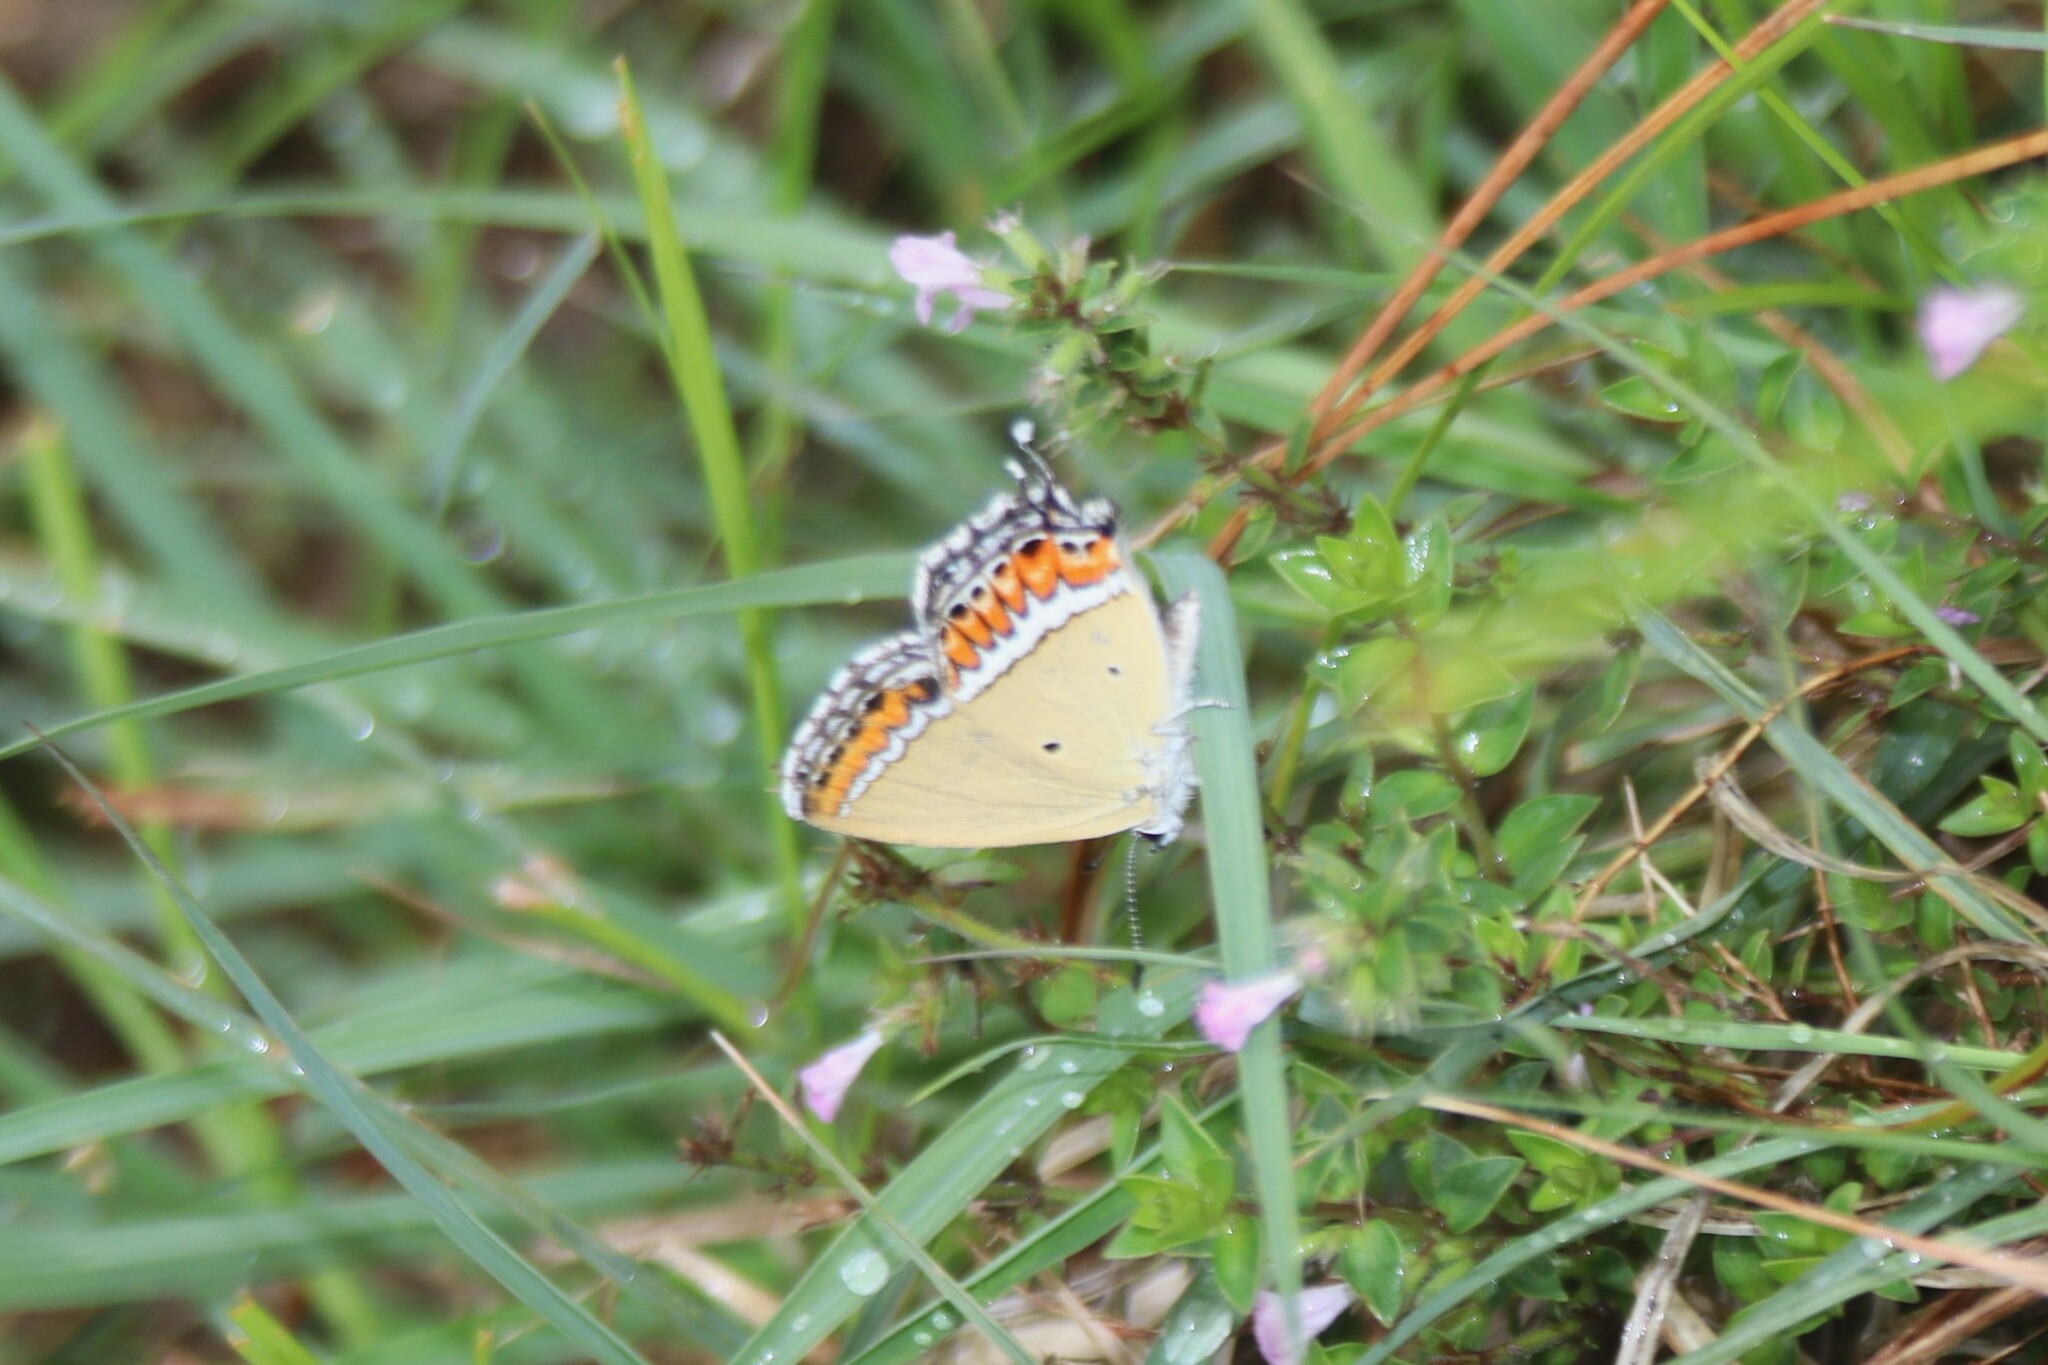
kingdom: Animalia
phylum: Arthropoda
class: Insecta
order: Lepidoptera
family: Lycaenidae
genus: Heliophorus
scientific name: Heliophorus sena
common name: Sorrel sapphire
